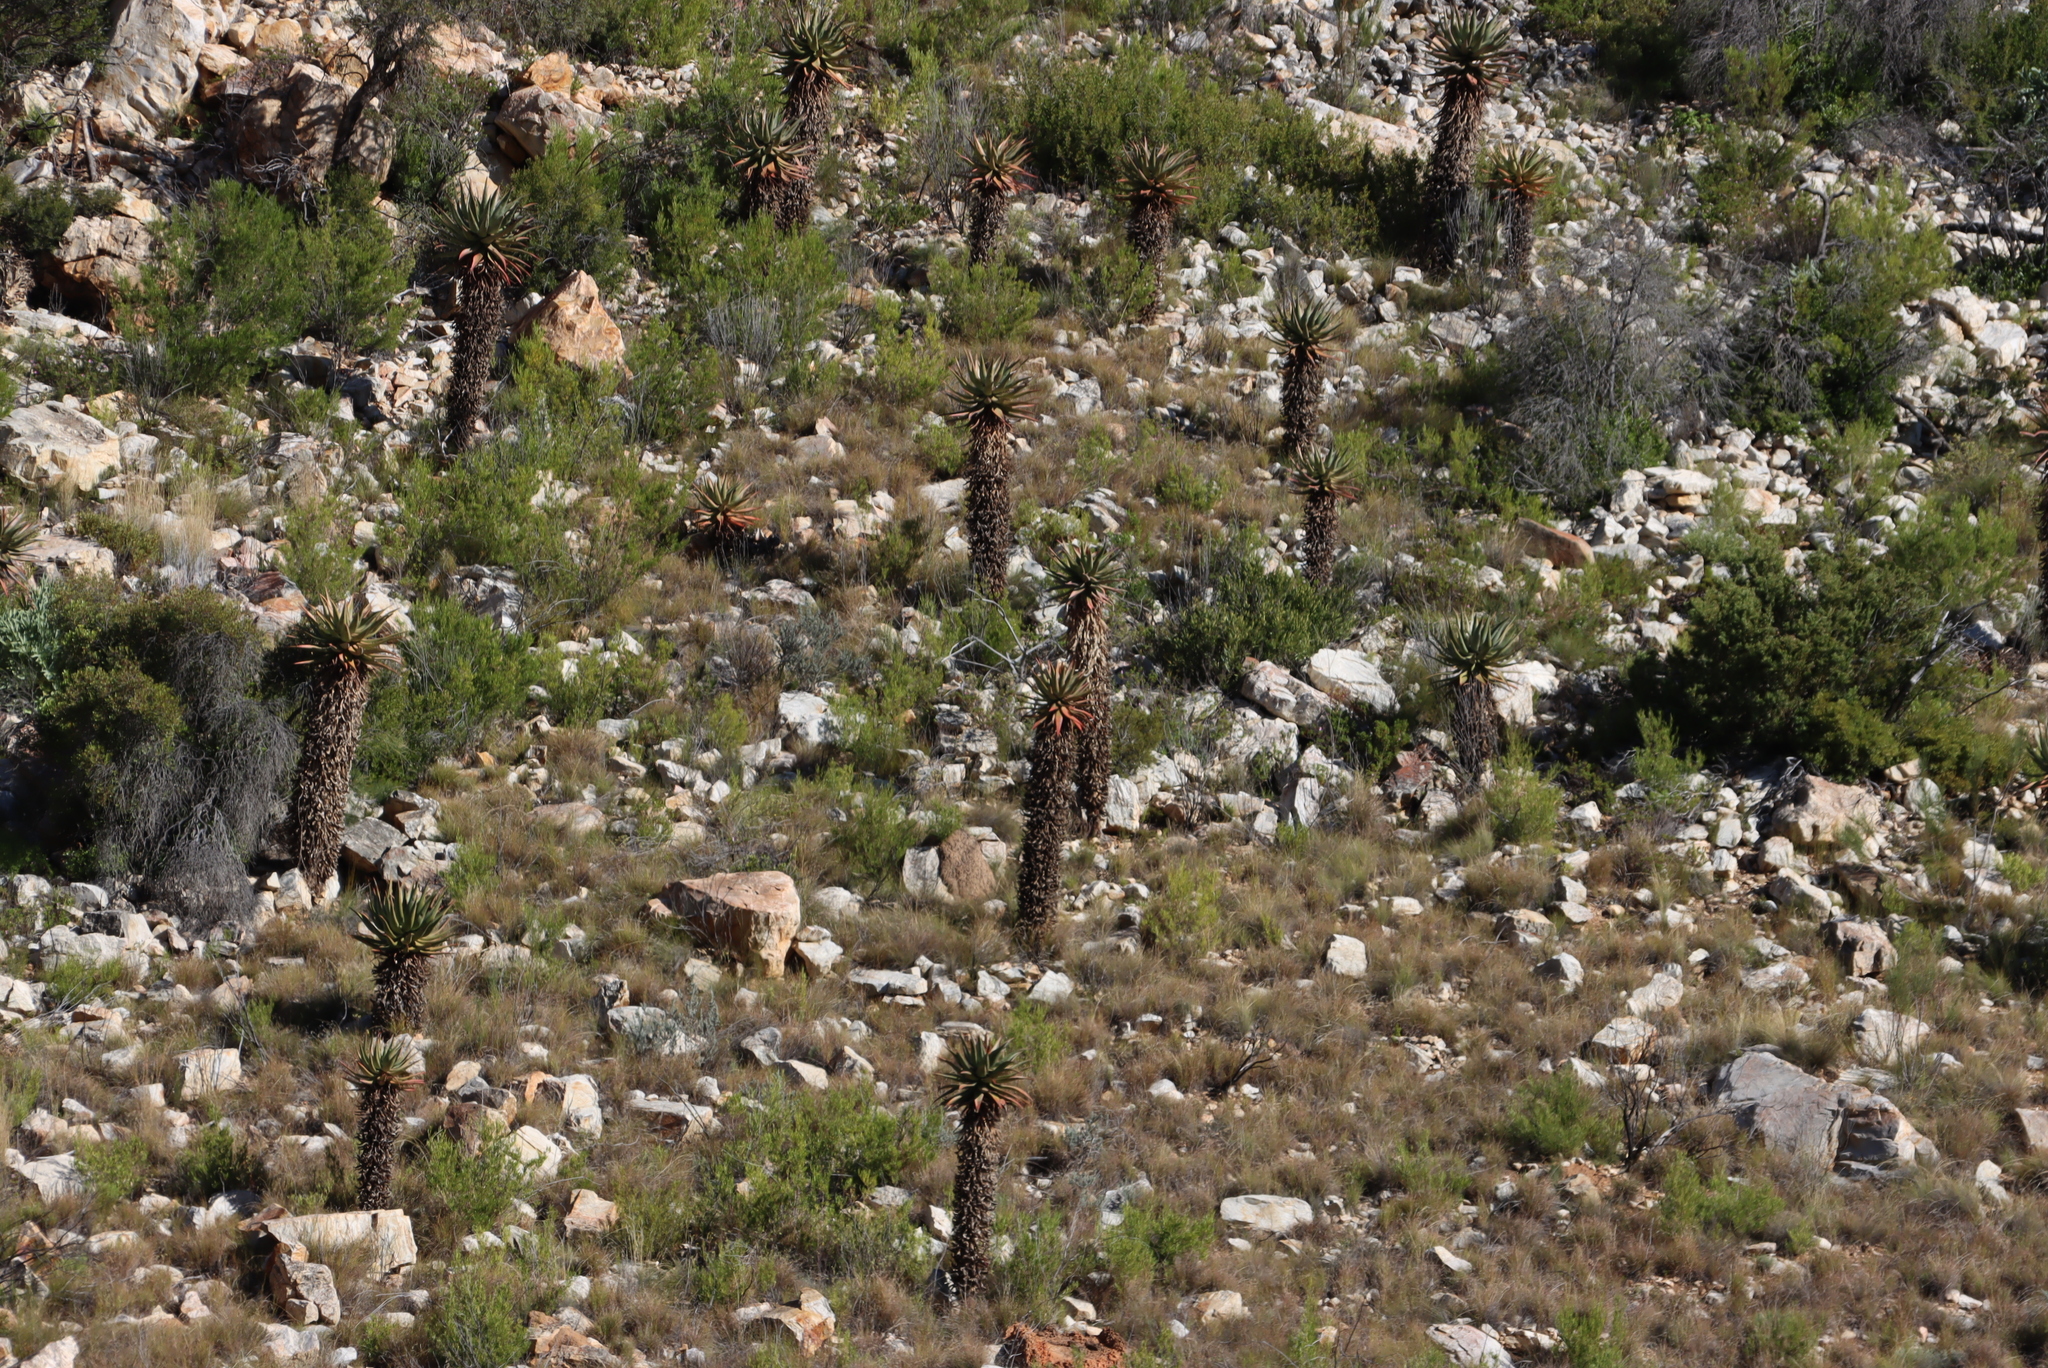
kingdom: Plantae
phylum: Tracheophyta
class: Liliopsida
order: Asparagales
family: Asphodelaceae
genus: Aloe
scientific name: Aloe ferox
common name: Bitter aloe
